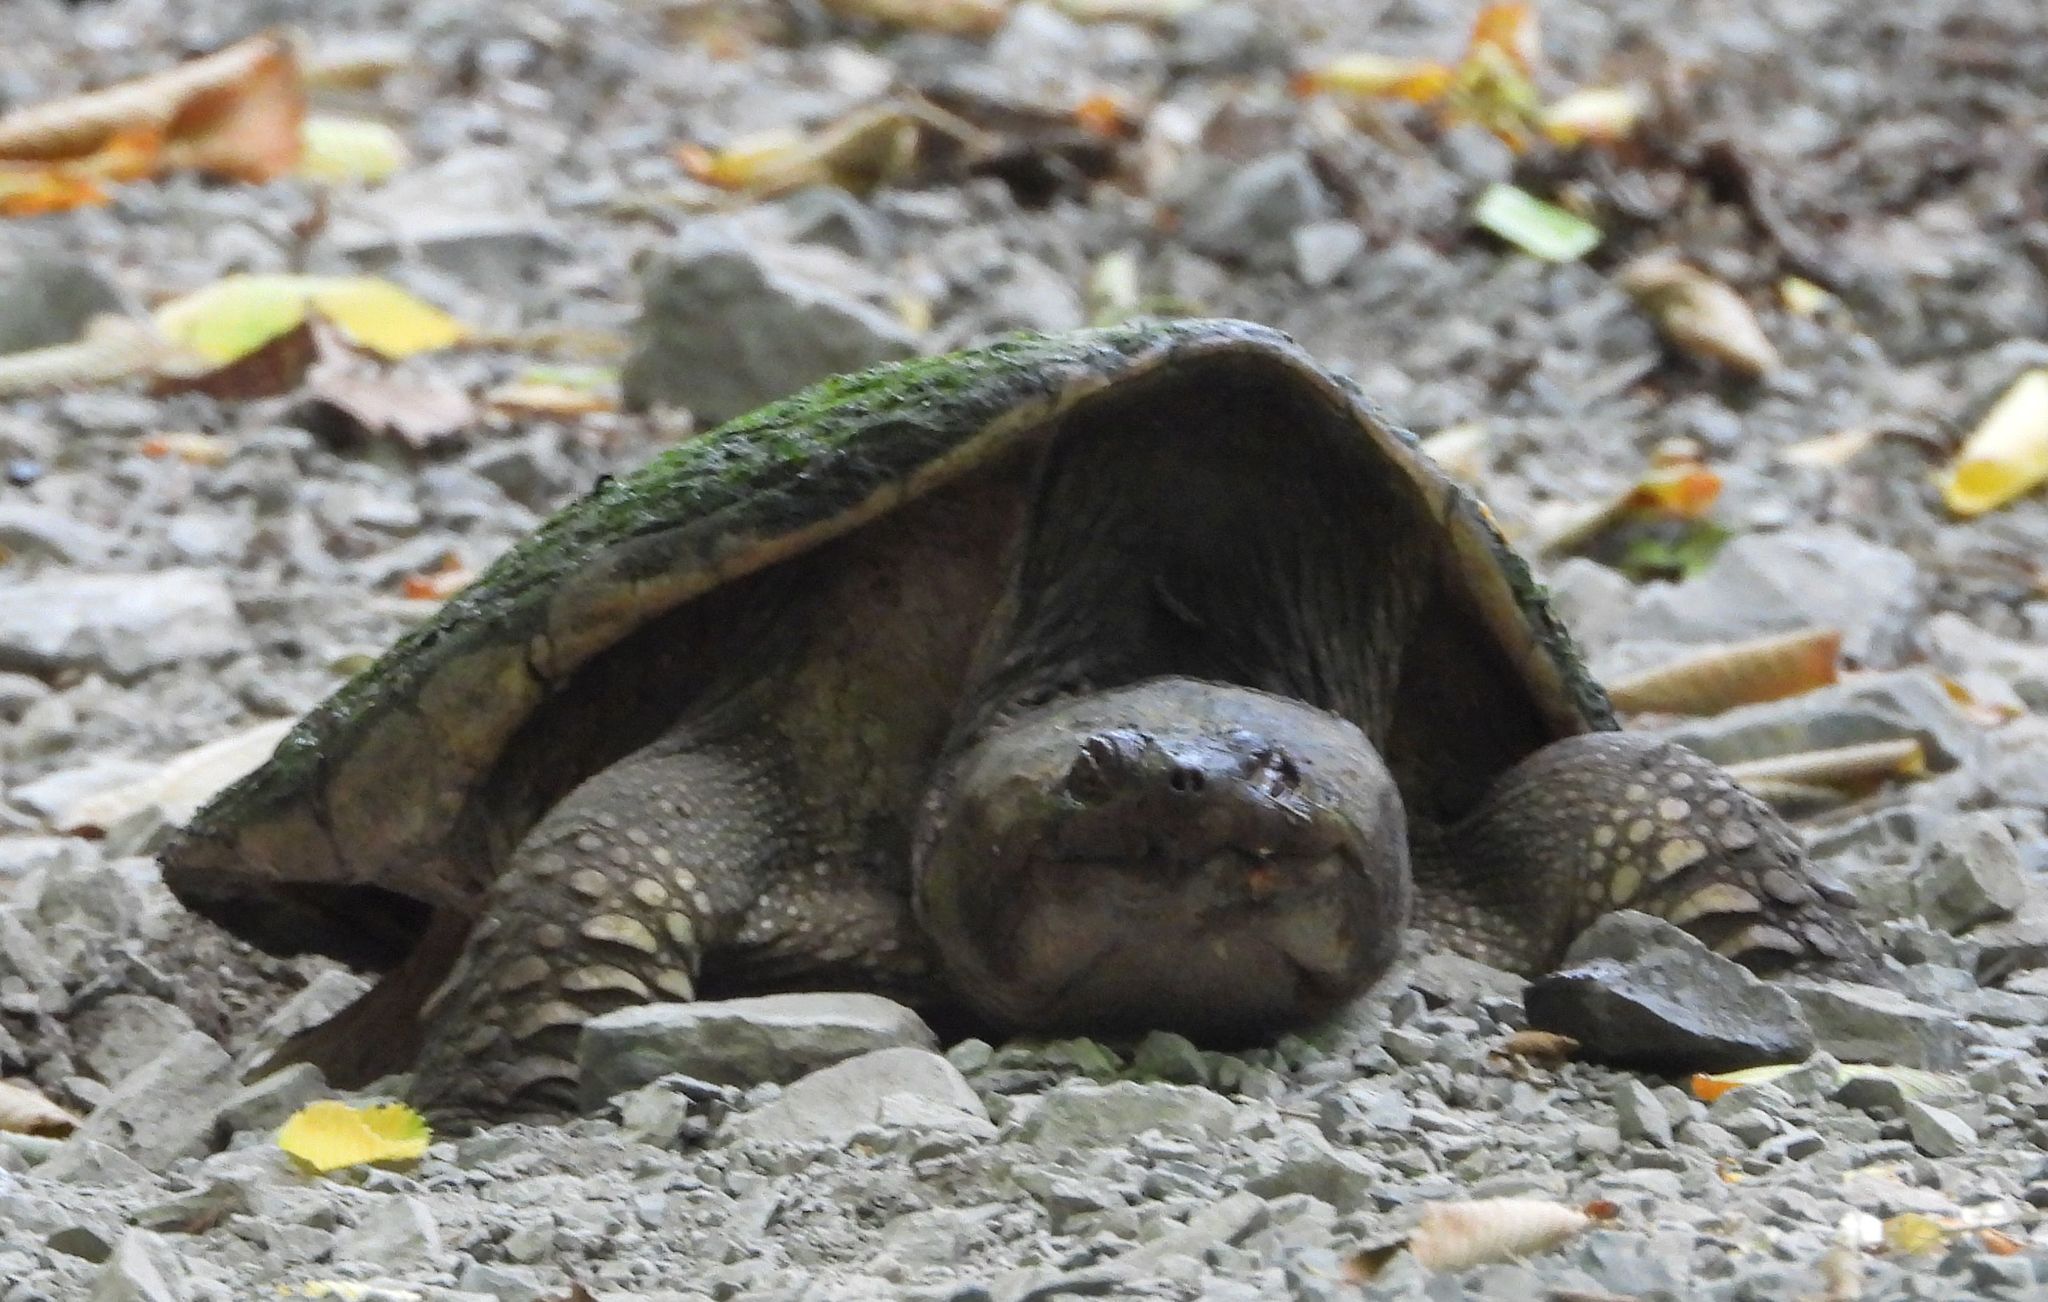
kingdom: Animalia
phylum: Chordata
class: Testudines
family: Chelydridae
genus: Chelydra
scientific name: Chelydra serpentina
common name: Common snapping turtle
